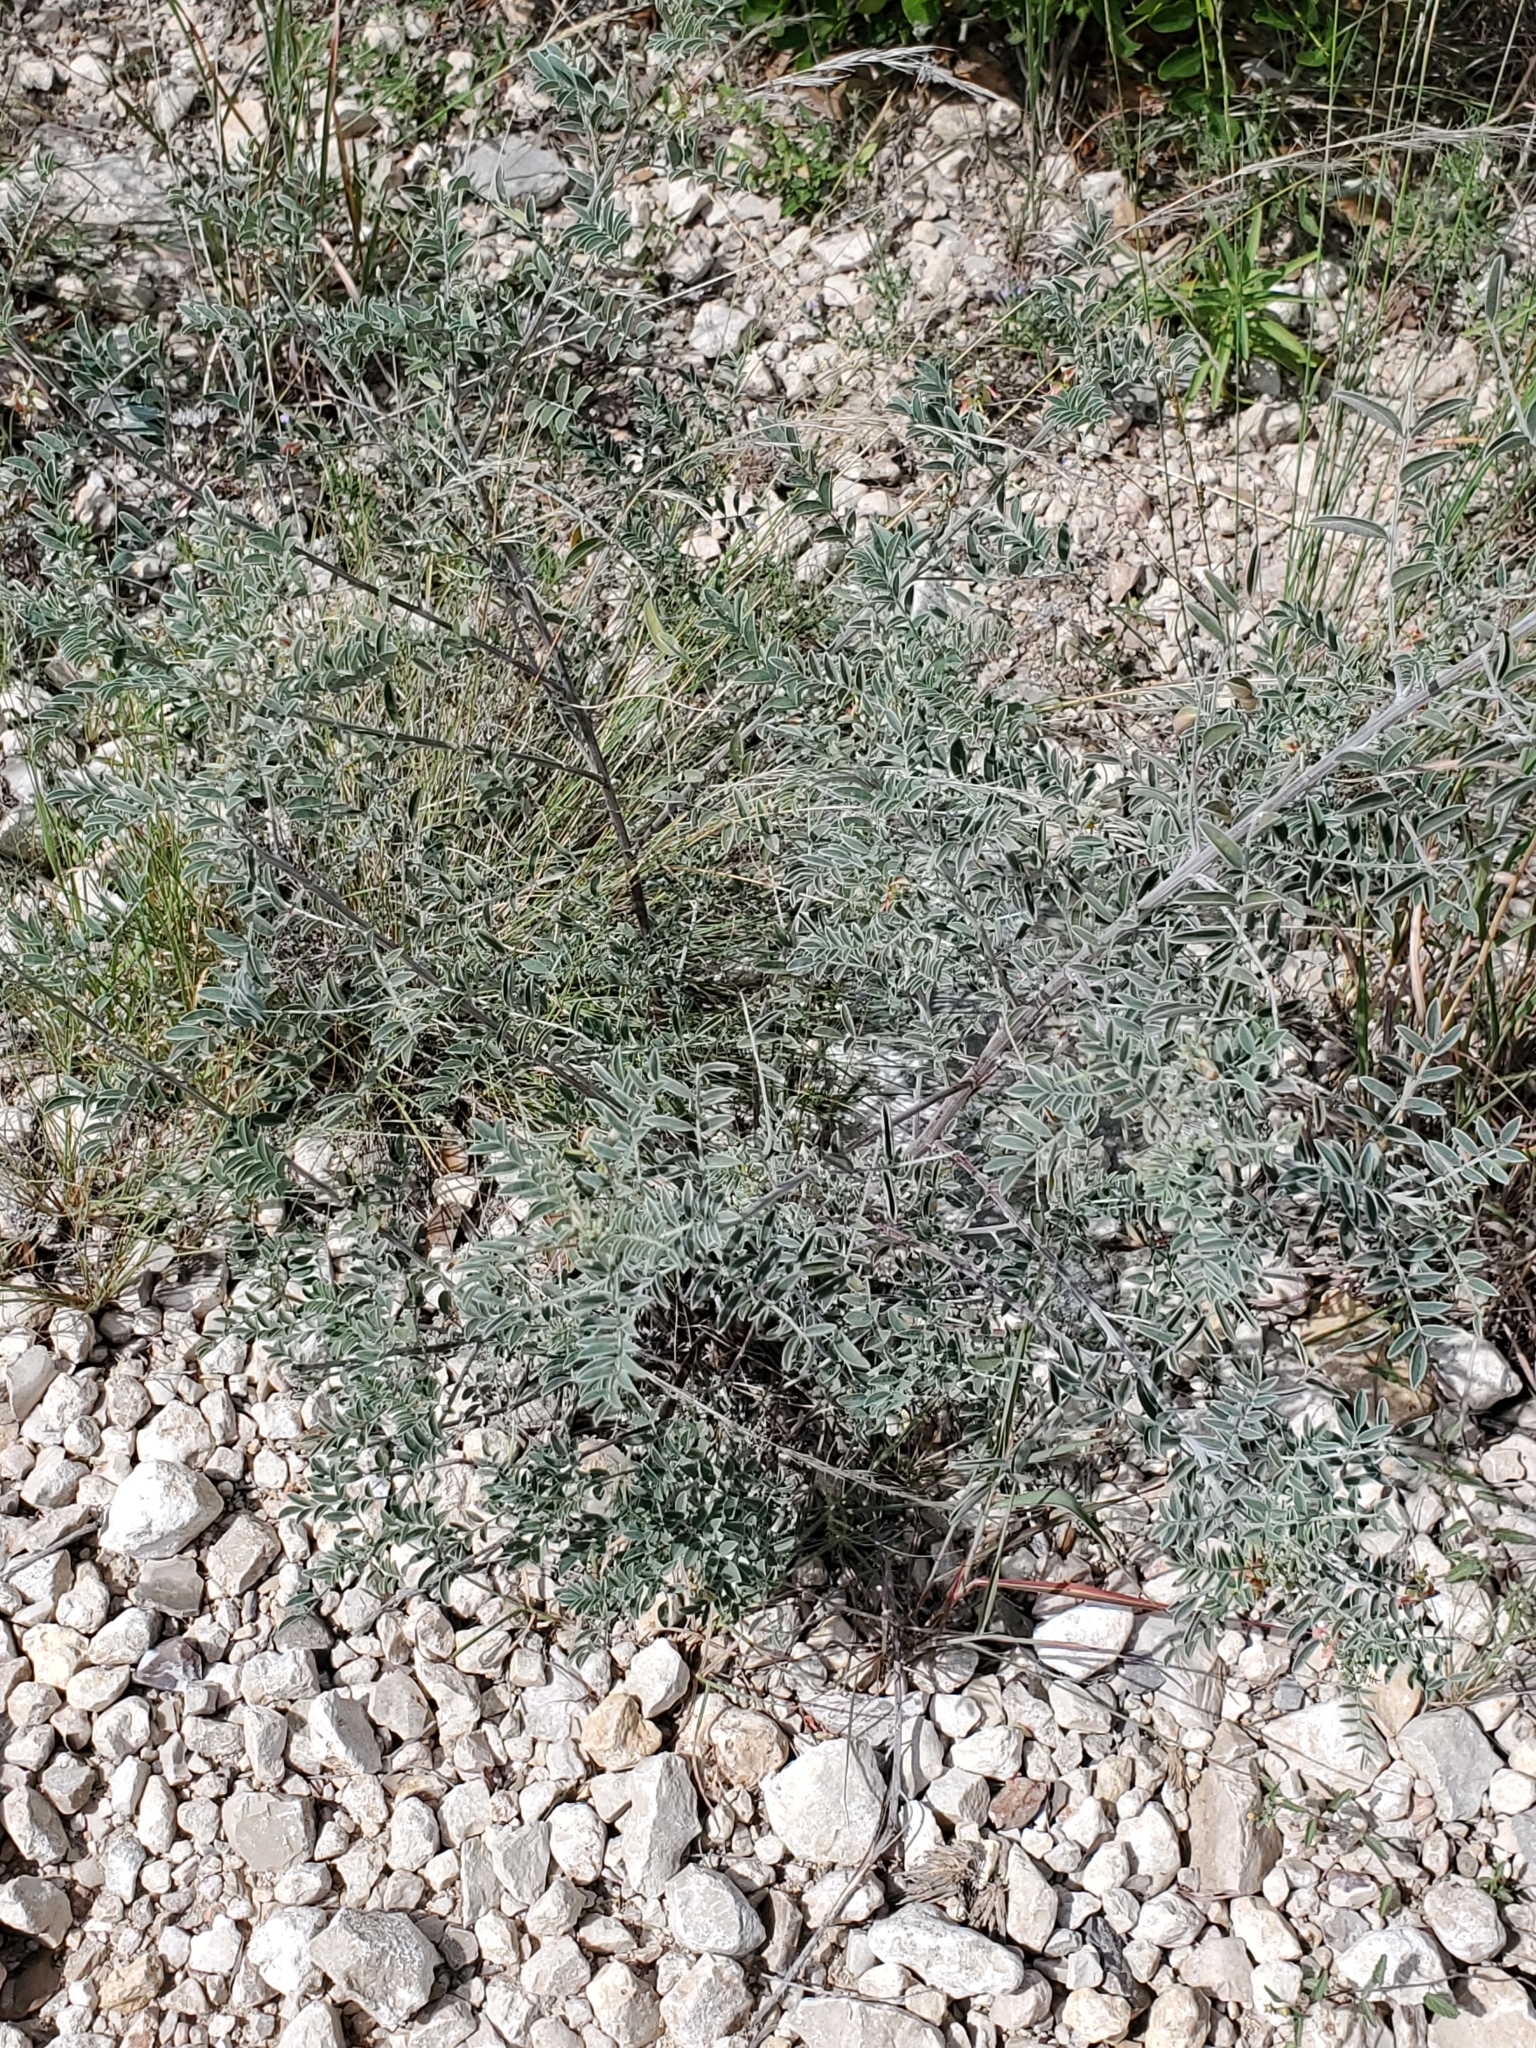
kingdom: Plantae
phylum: Tracheophyta
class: Magnoliopsida
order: Fabales
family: Fabaceae
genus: Indigofera
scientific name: Indigofera lindheimeriana
